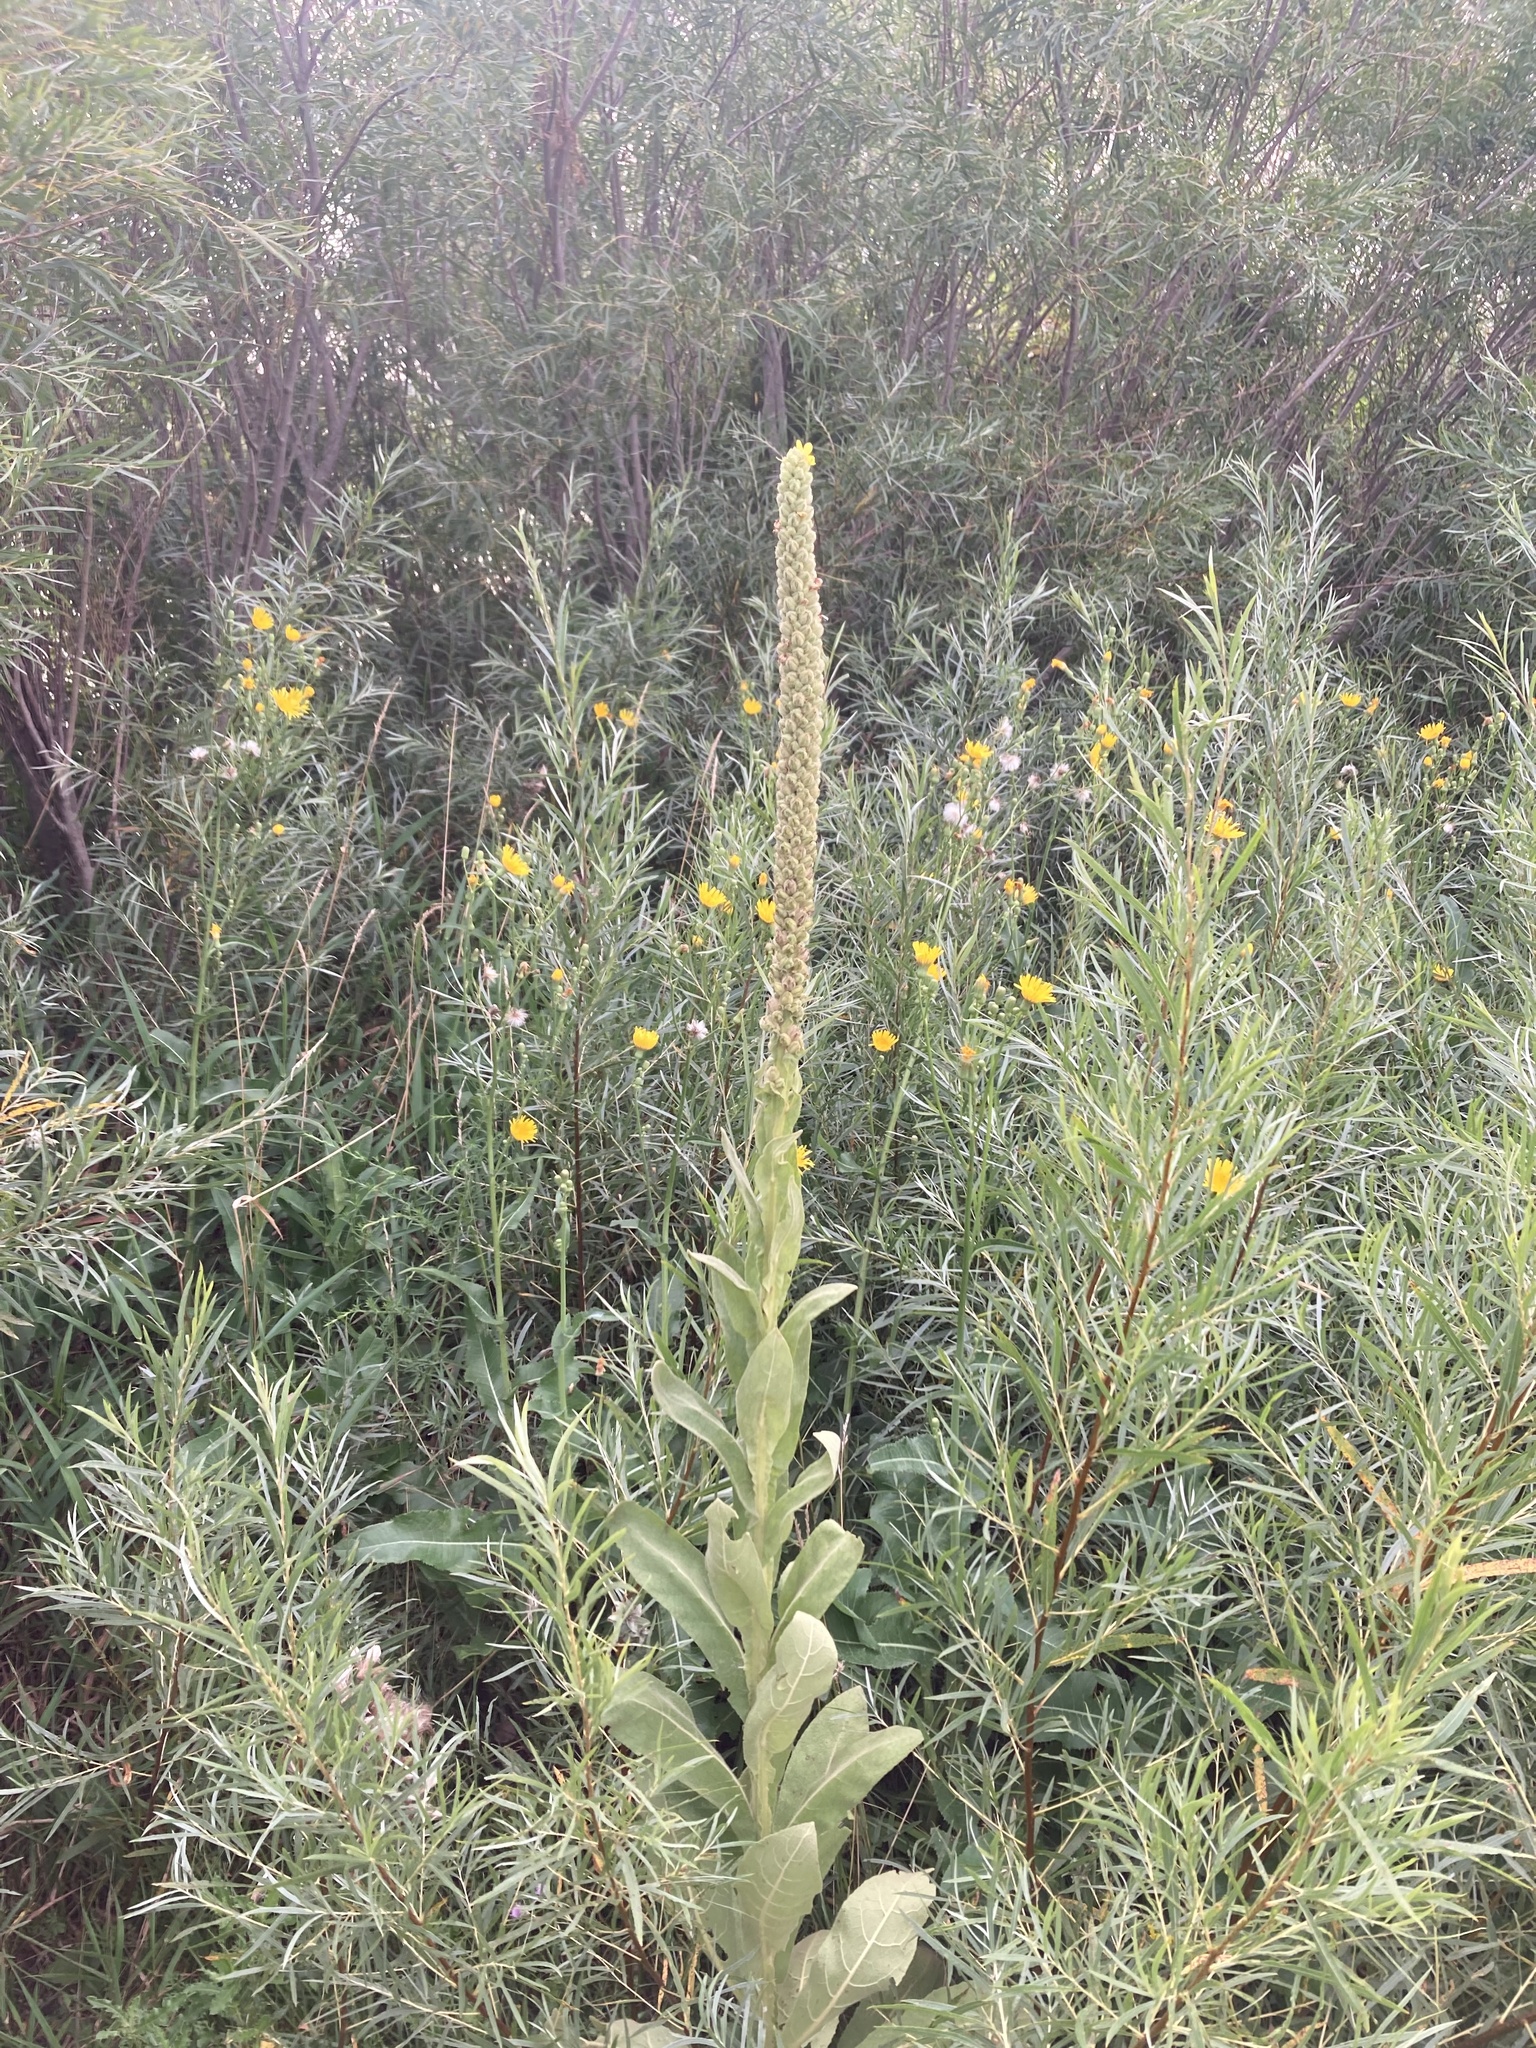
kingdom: Plantae
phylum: Tracheophyta
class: Magnoliopsida
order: Lamiales
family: Scrophulariaceae
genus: Verbascum
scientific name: Verbascum thapsus
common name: Common mullein
